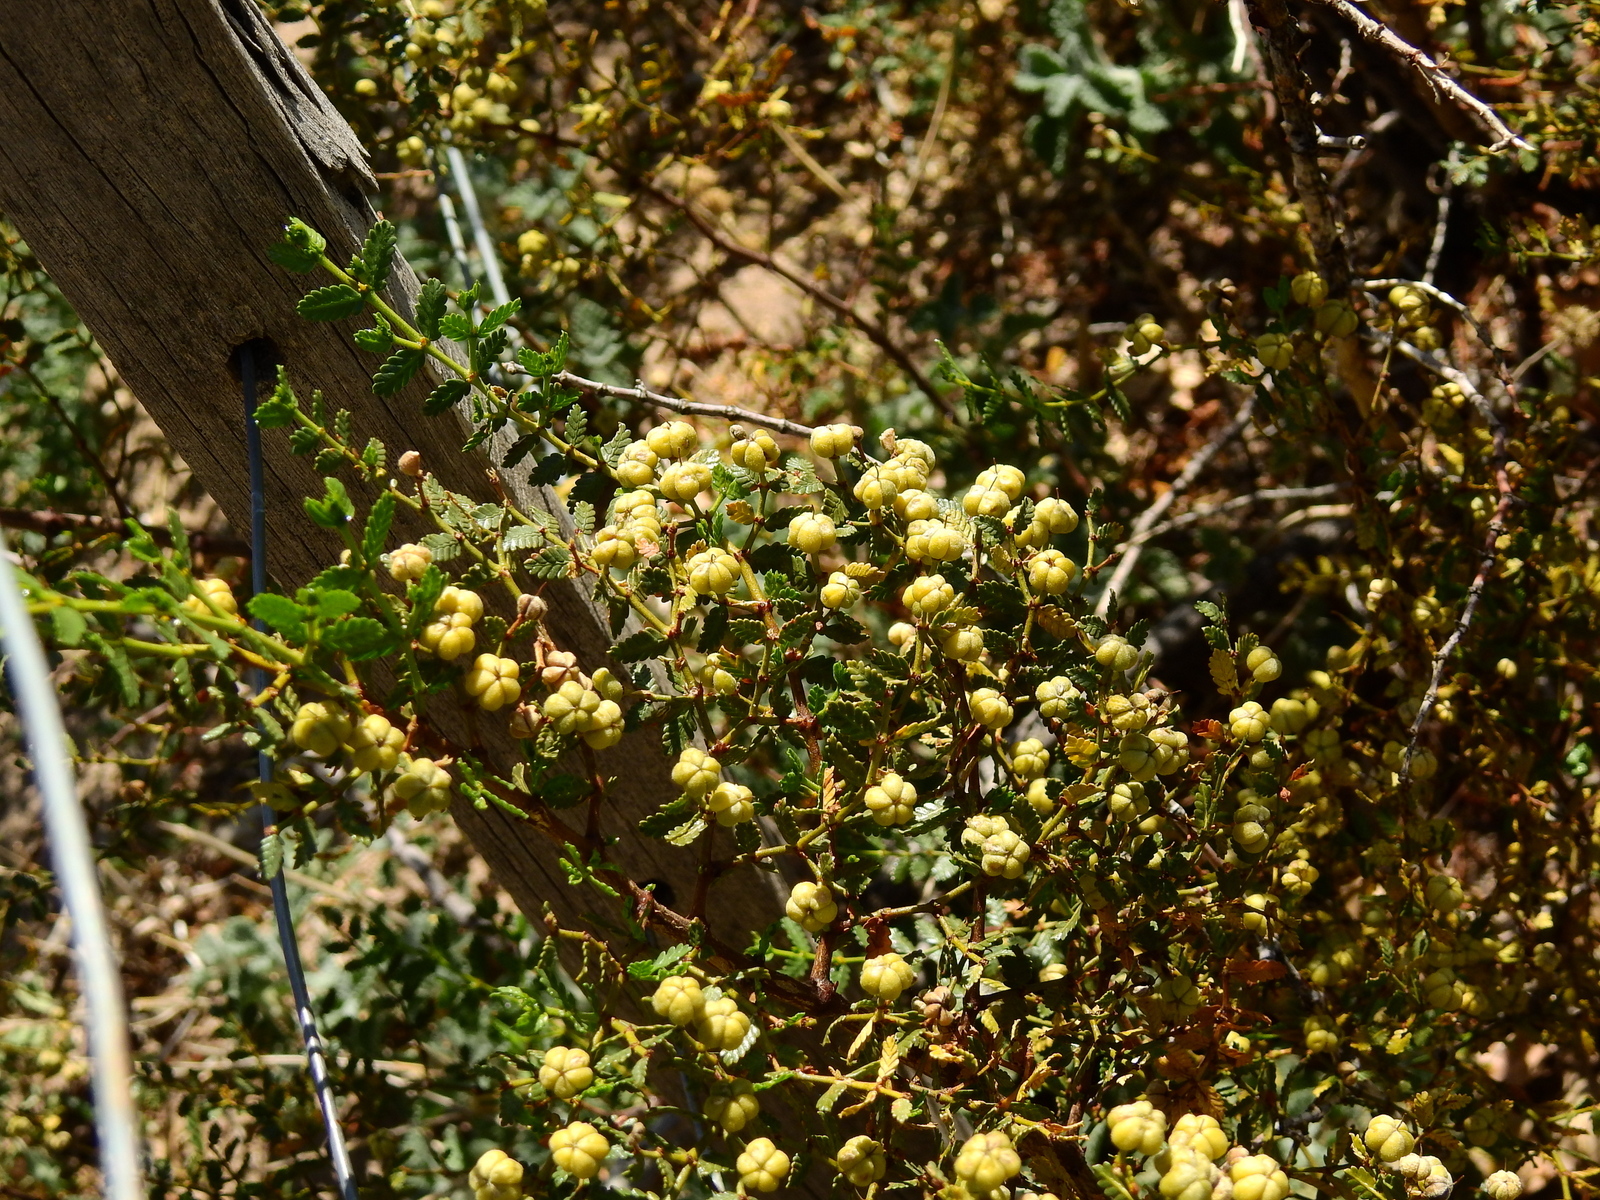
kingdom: Plantae
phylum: Tracheophyta
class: Magnoliopsida
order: Zygophyllales
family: Zygophyllaceae
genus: Larrea
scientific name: Larrea nitida
